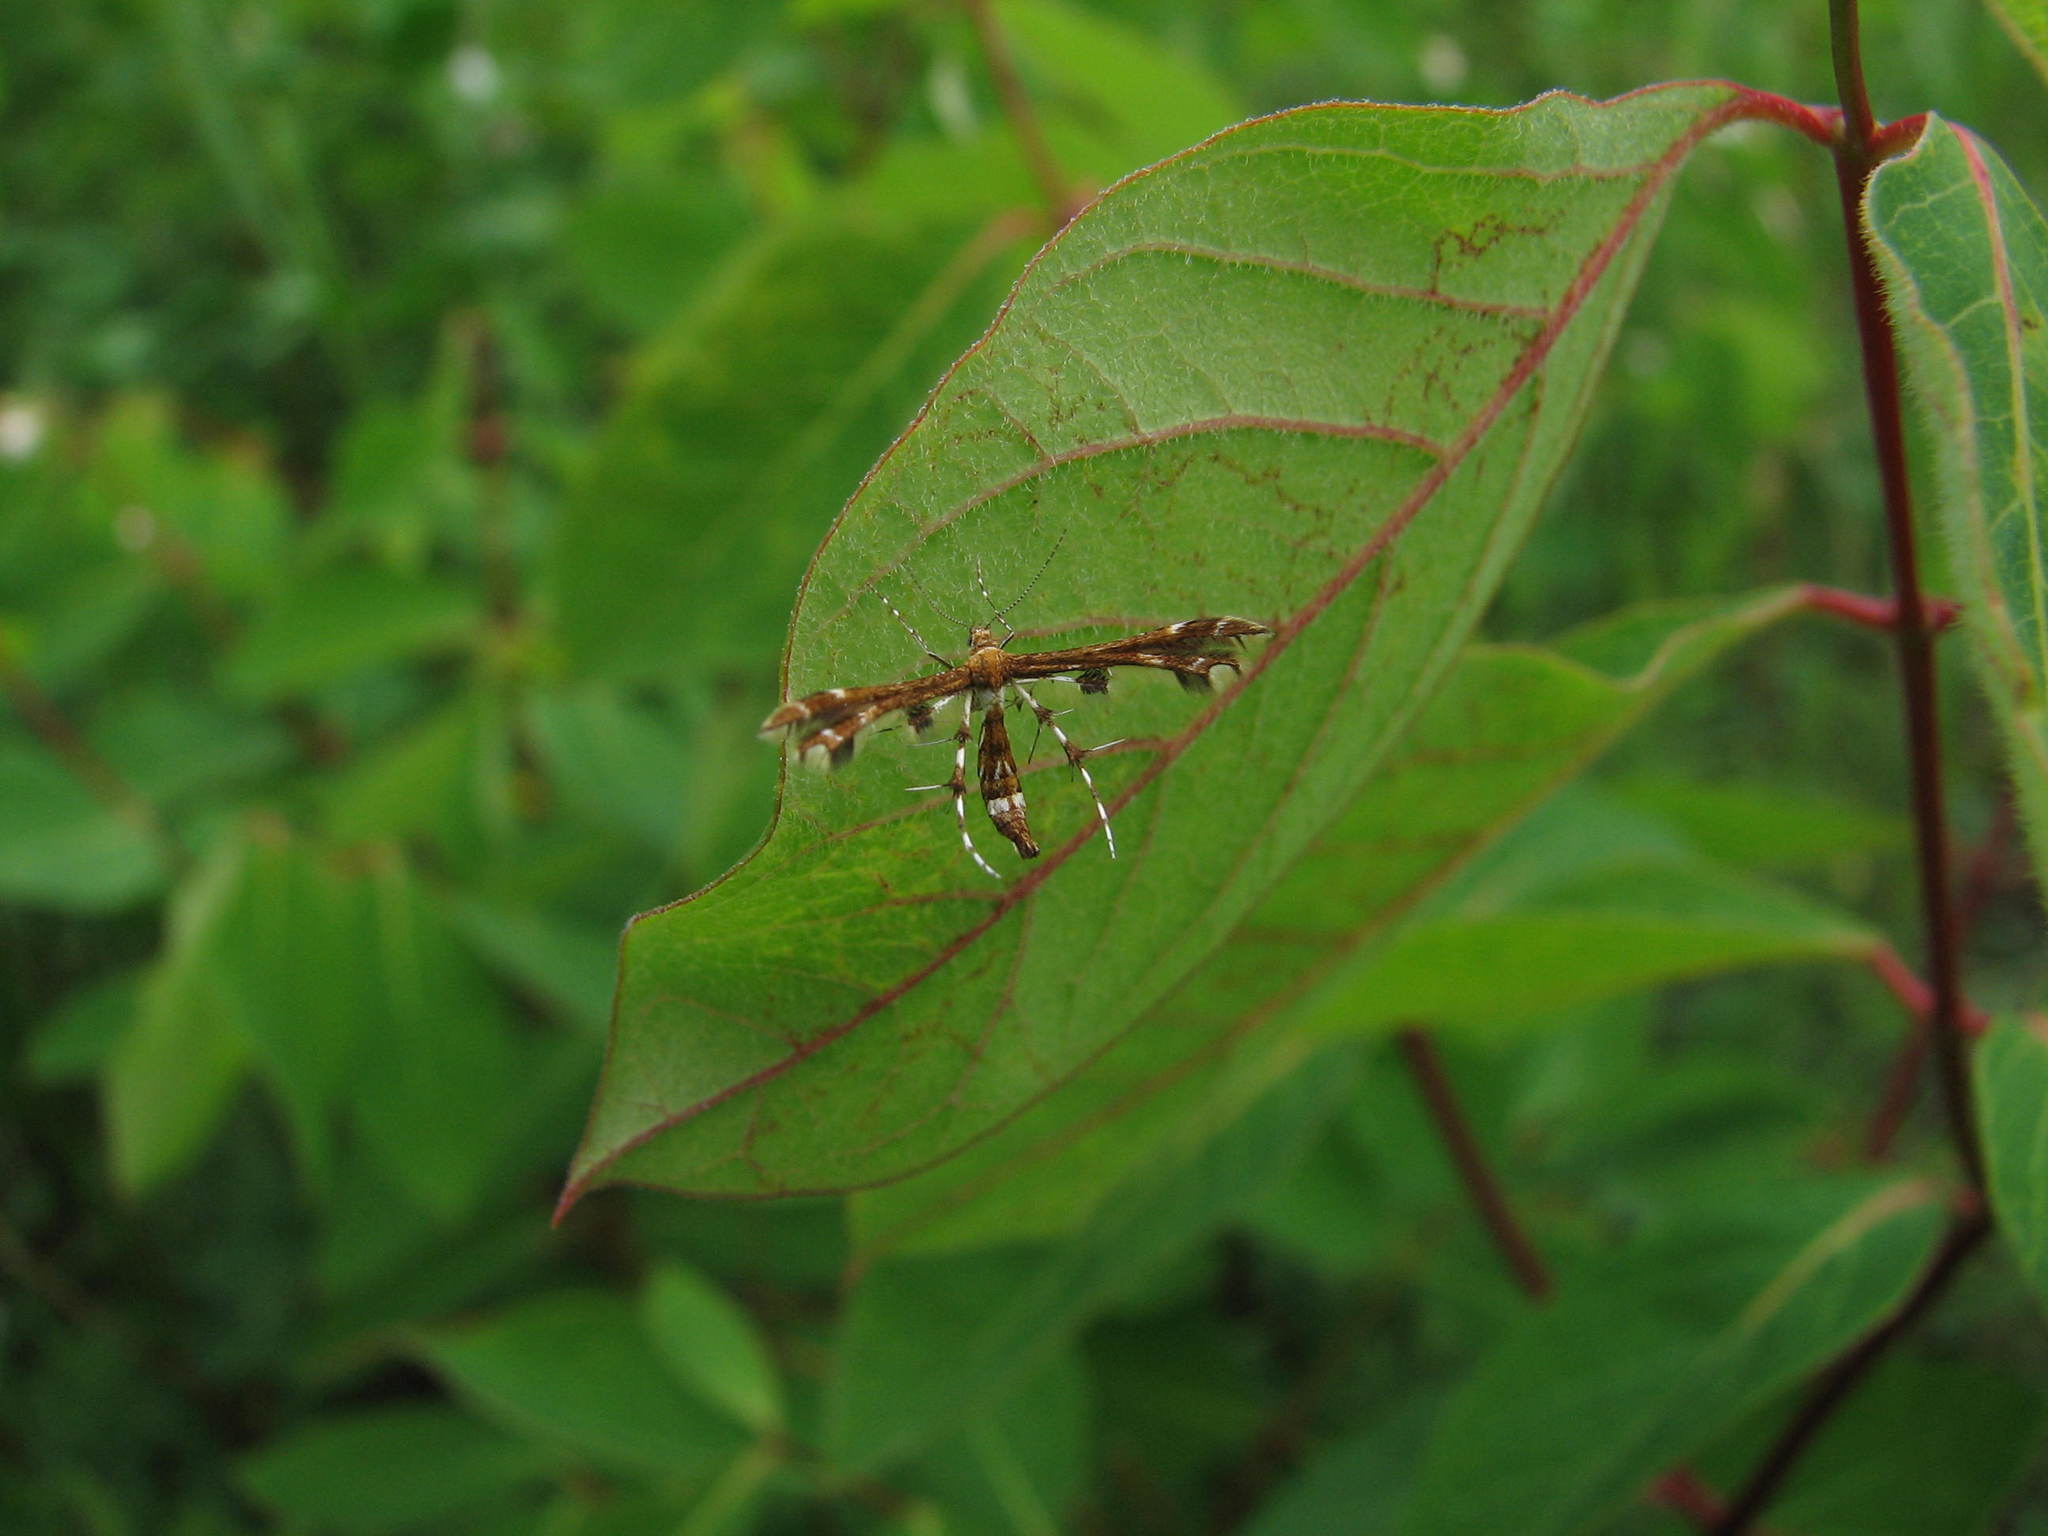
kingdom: Animalia
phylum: Arthropoda
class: Insecta
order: Lepidoptera
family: Pterophoridae
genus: Geina
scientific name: Geina tenuidactylus
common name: Himmelman's plume moth
